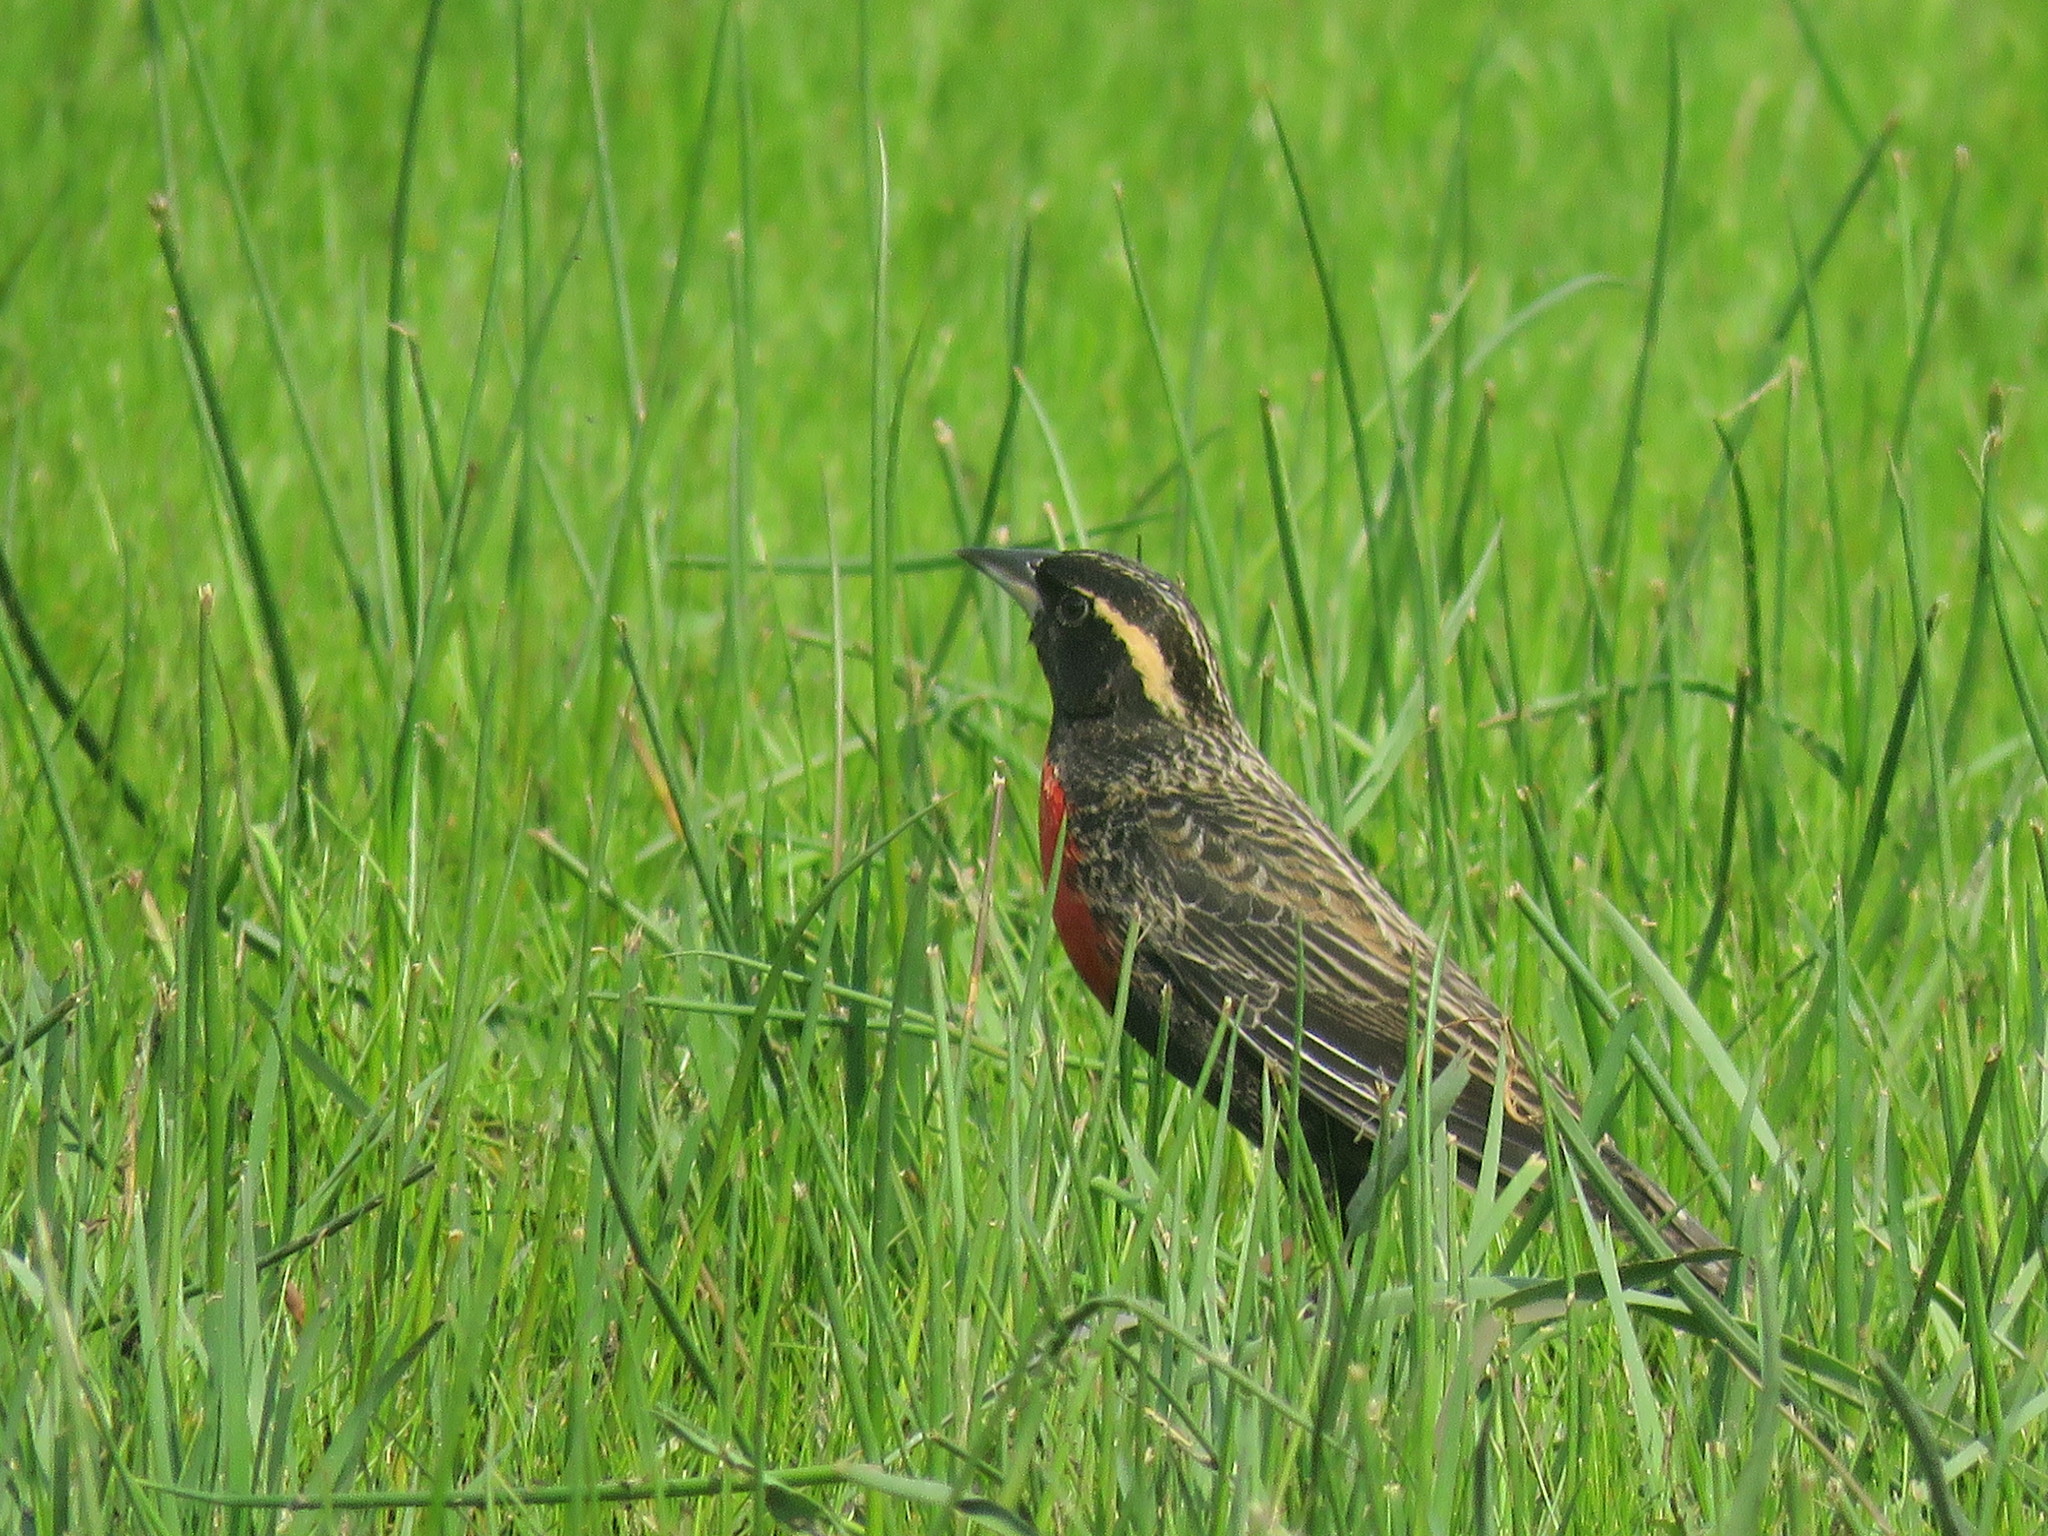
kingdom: Animalia
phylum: Chordata
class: Aves
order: Passeriformes
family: Icteridae
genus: Sturnella
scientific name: Sturnella superciliaris
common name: White-browed blackbird
